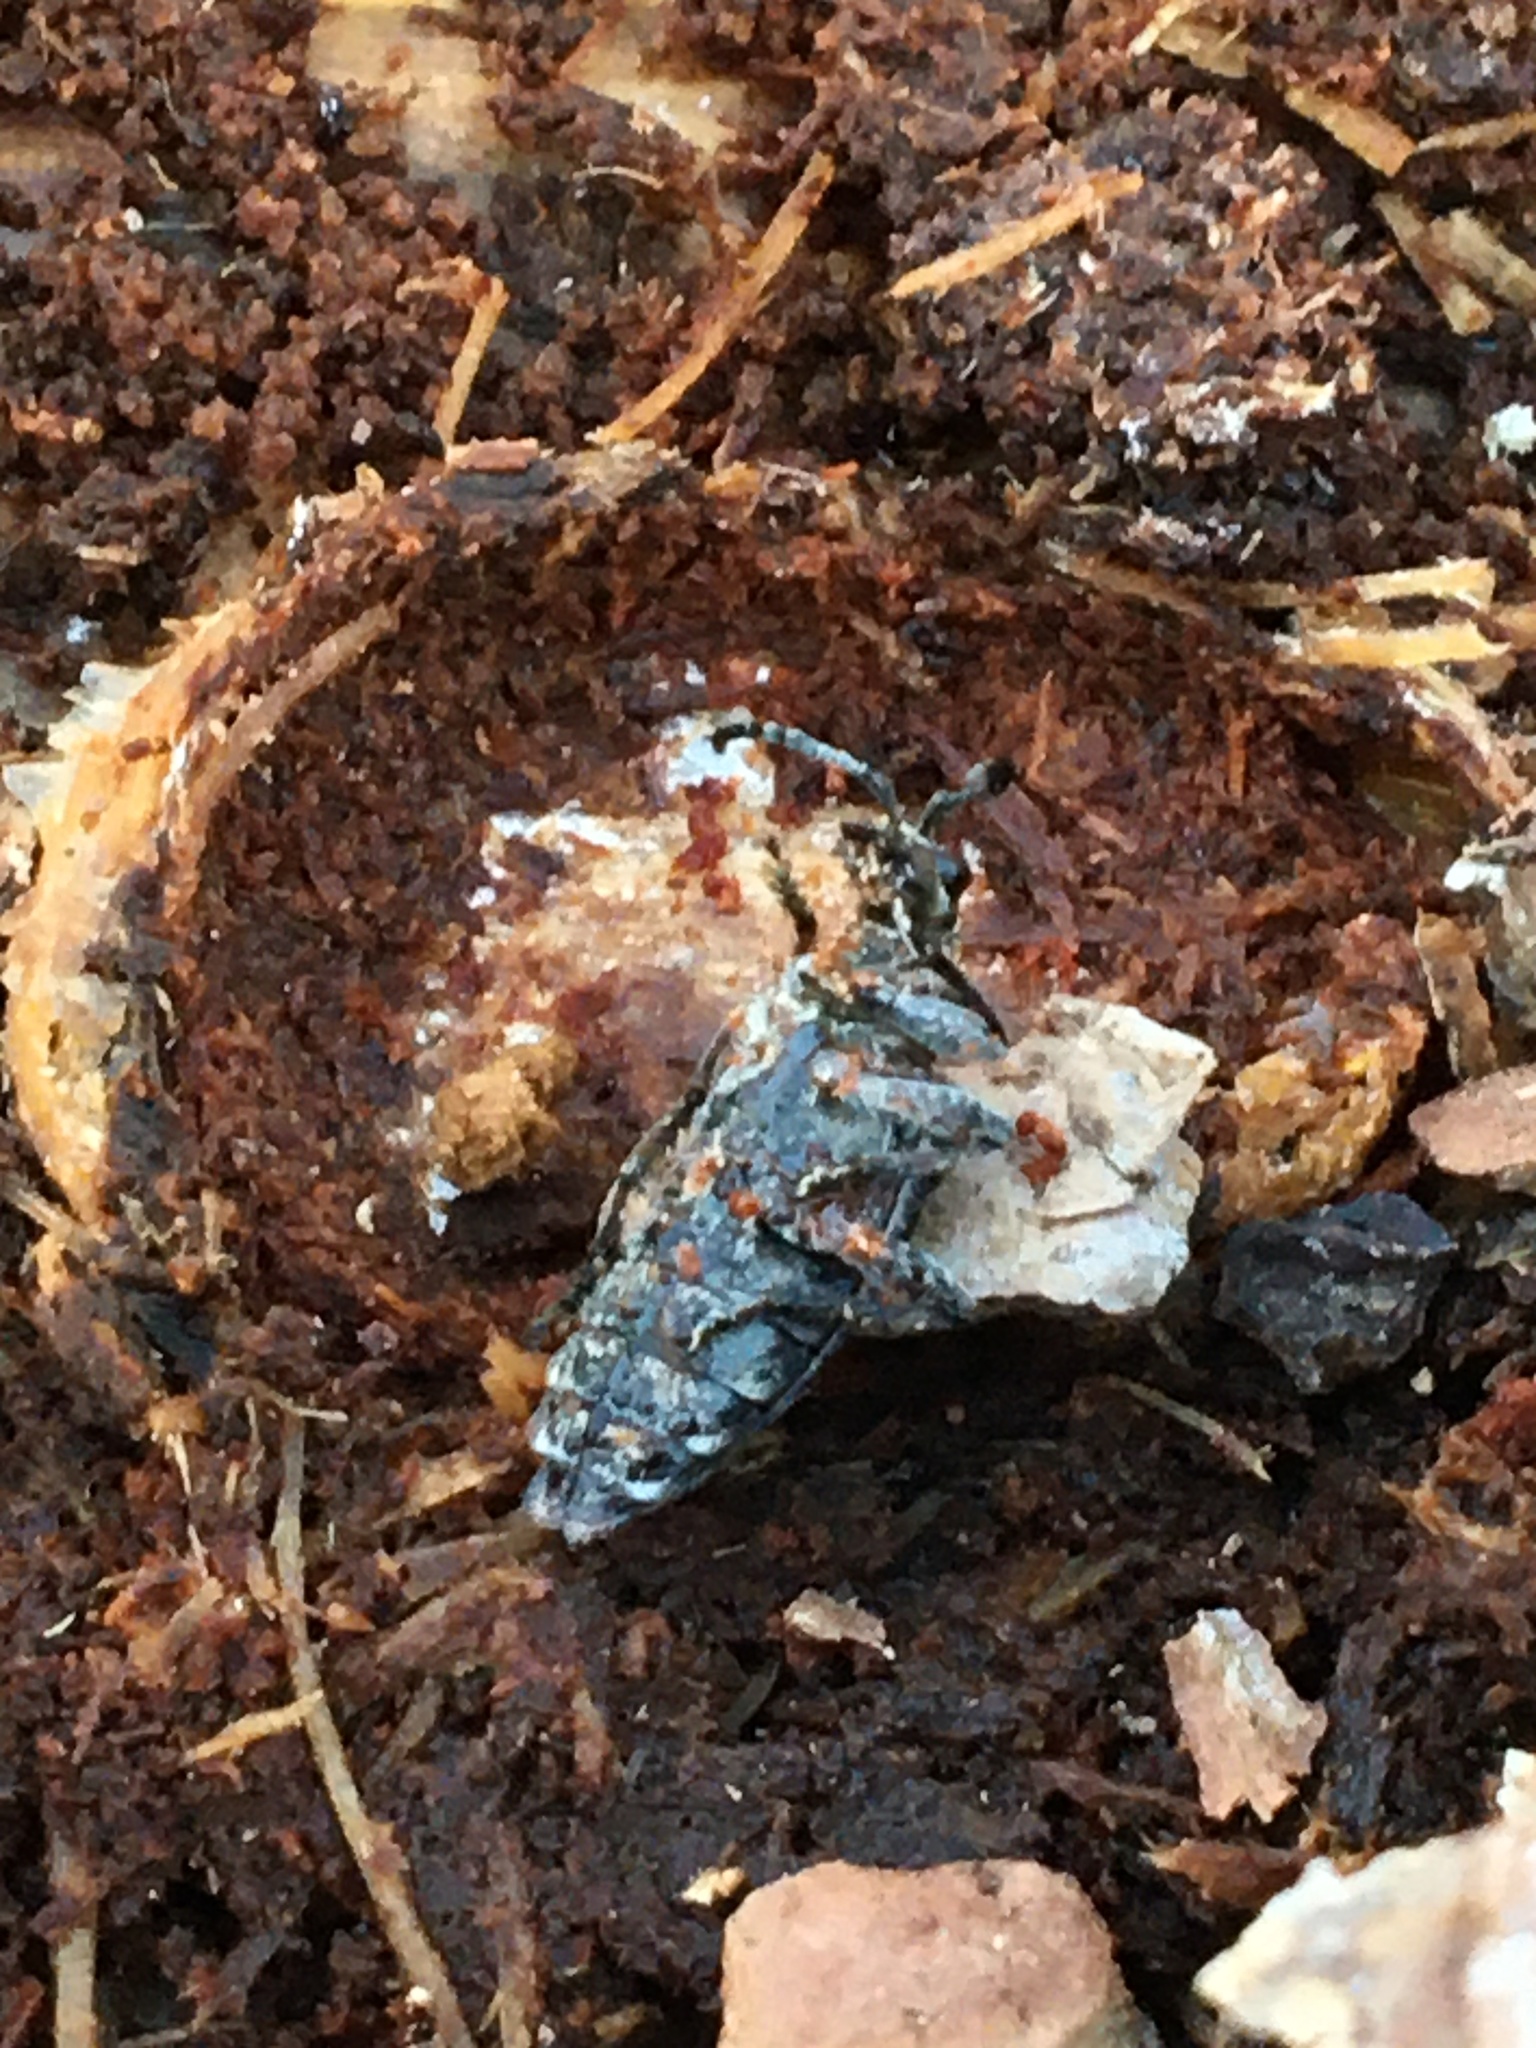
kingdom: Animalia
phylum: Arthropoda
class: Insecta
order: Coleoptera
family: Cerambycidae
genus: Rhagium
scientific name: Rhagium inquisitor
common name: Ribbed pine borer
